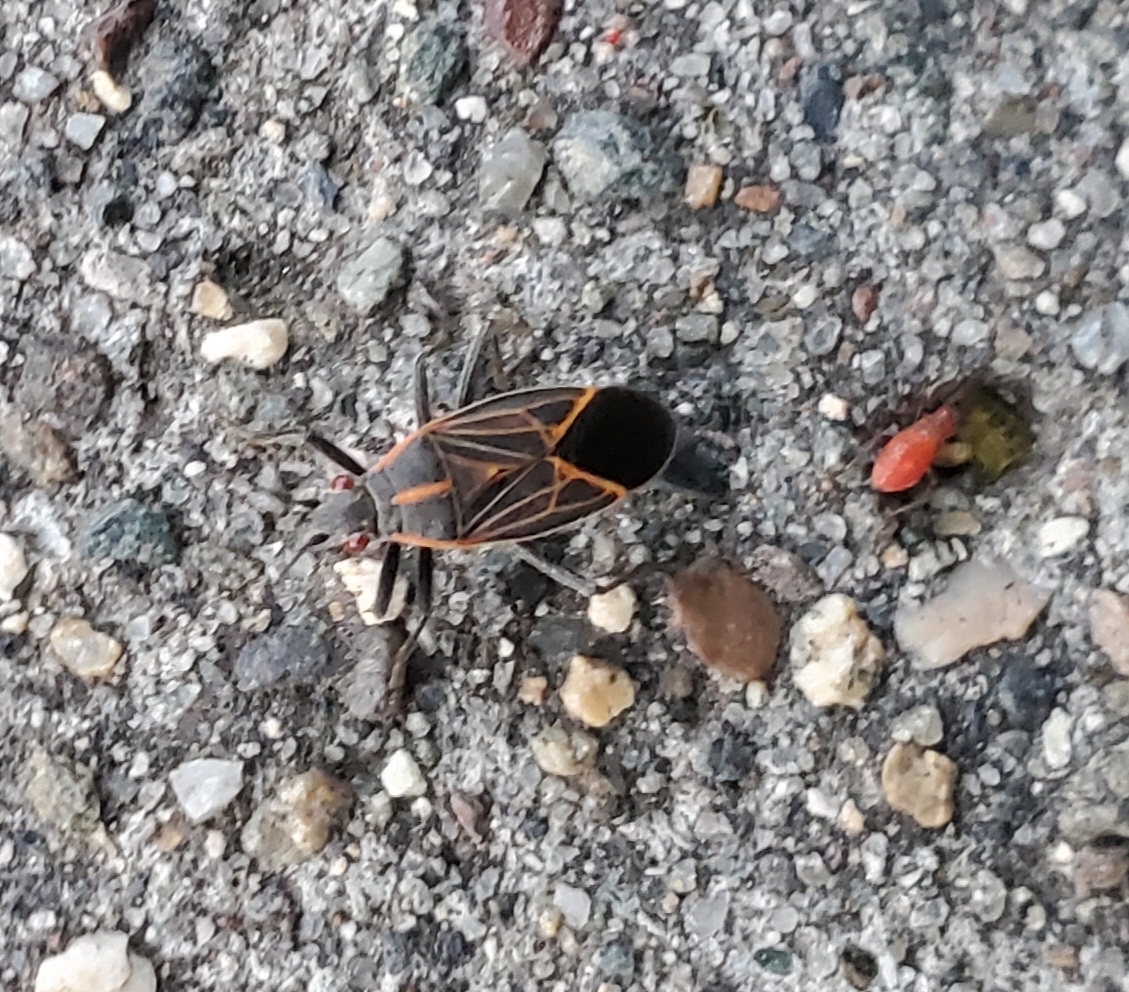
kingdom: Animalia
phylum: Arthropoda
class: Insecta
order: Hemiptera
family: Rhopalidae
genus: Boisea
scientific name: Boisea rubrolineata
